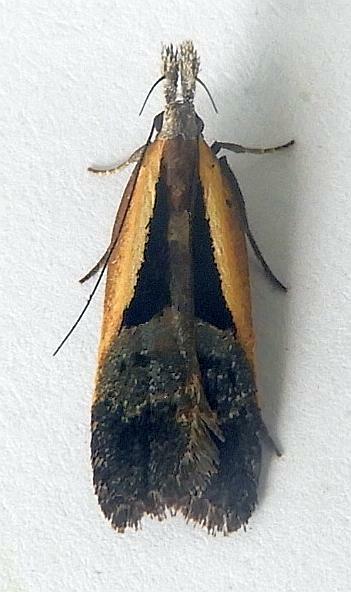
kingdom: Animalia
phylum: Arthropoda
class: Insecta
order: Lepidoptera
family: Gelechiidae
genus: Dichomeris
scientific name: Dichomeris mulsa
